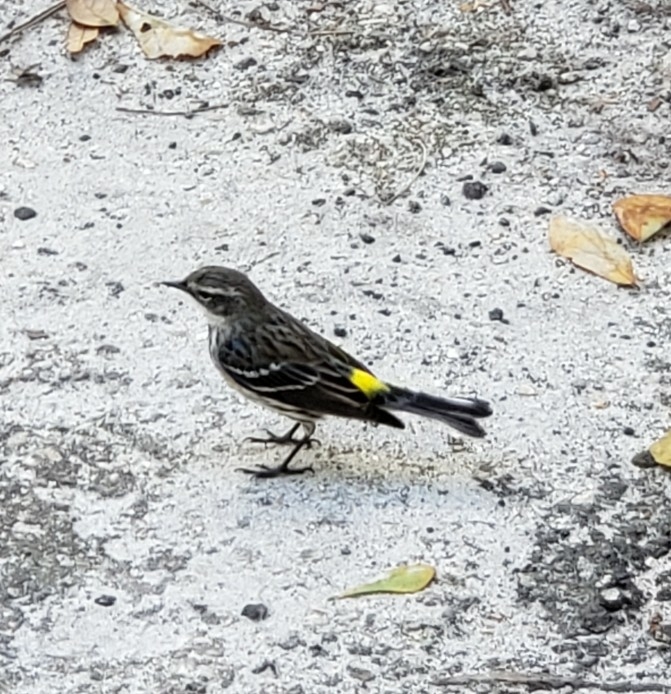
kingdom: Animalia
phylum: Chordata
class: Aves
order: Passeriformes
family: Parulidae
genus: Setophaga
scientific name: Setophaga coronata
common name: Myrtle warbler
